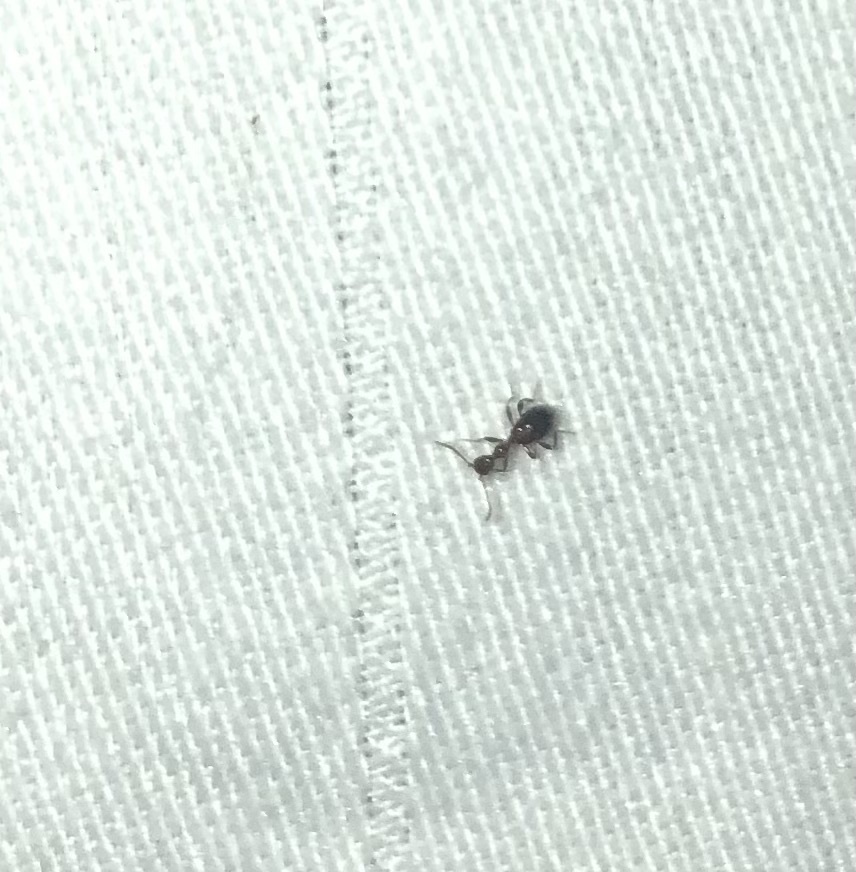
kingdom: Animalia
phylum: Arthropoda
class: Insecta
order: Coleoptera
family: Anthicidae
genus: Acanthinus
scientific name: Acanthinus
